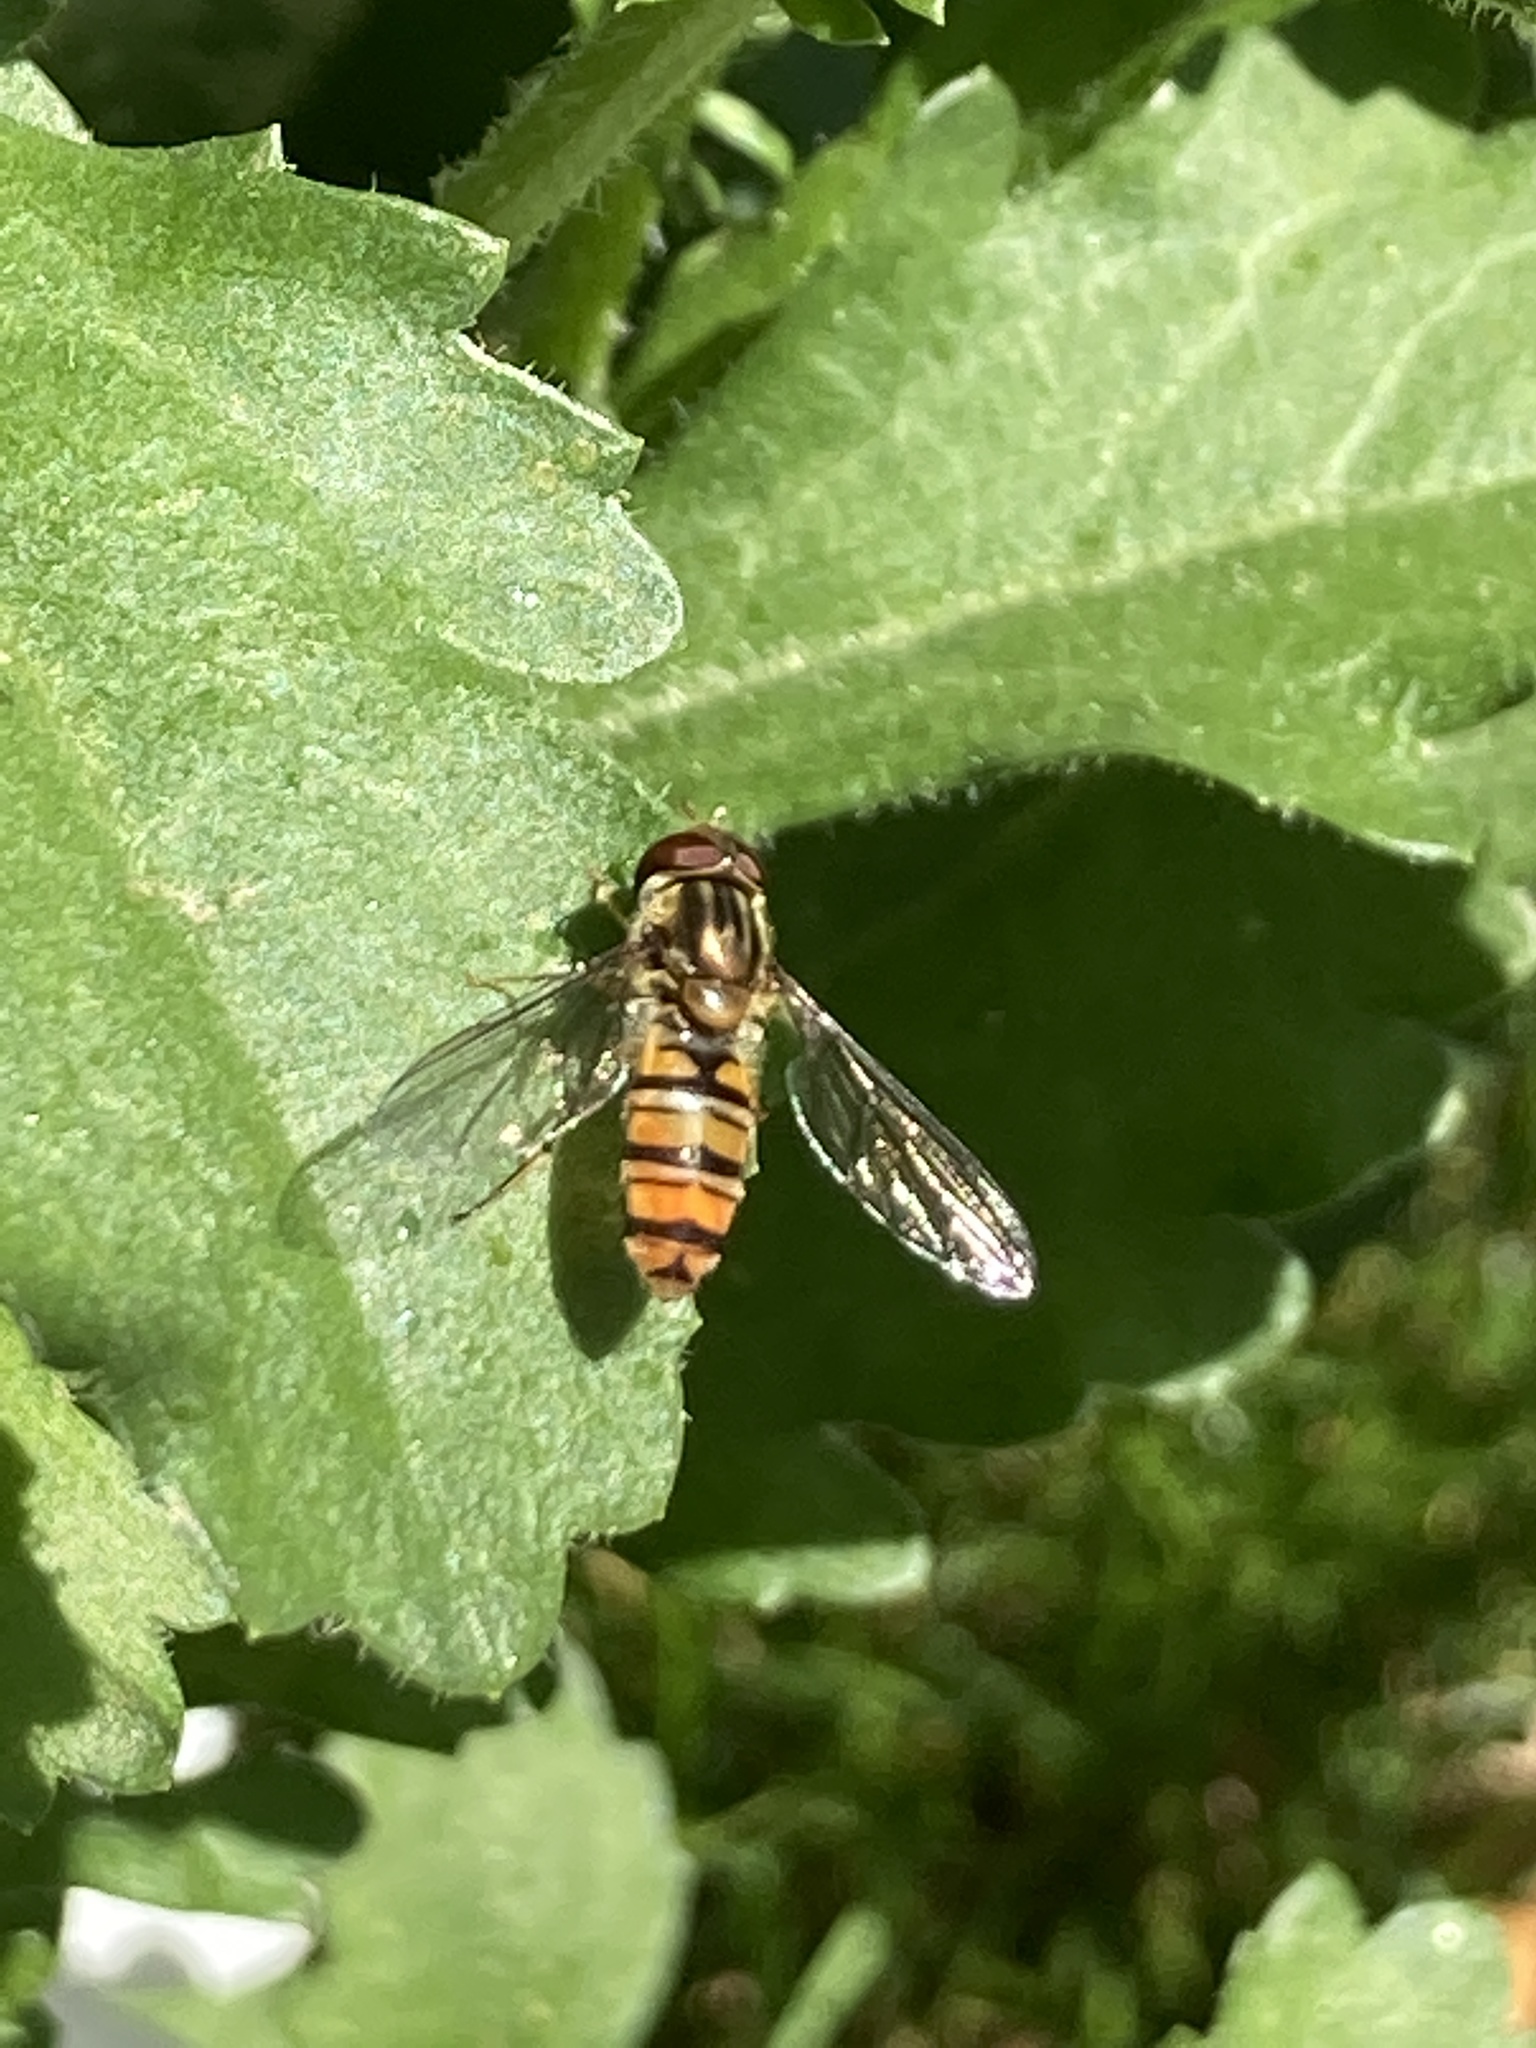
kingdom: Animalia
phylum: Arthropoda
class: Insecta
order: Diptera
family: Syrphidae
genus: Episyrphus
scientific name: Episyrphus balteatus
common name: Marmalade hoverfly
